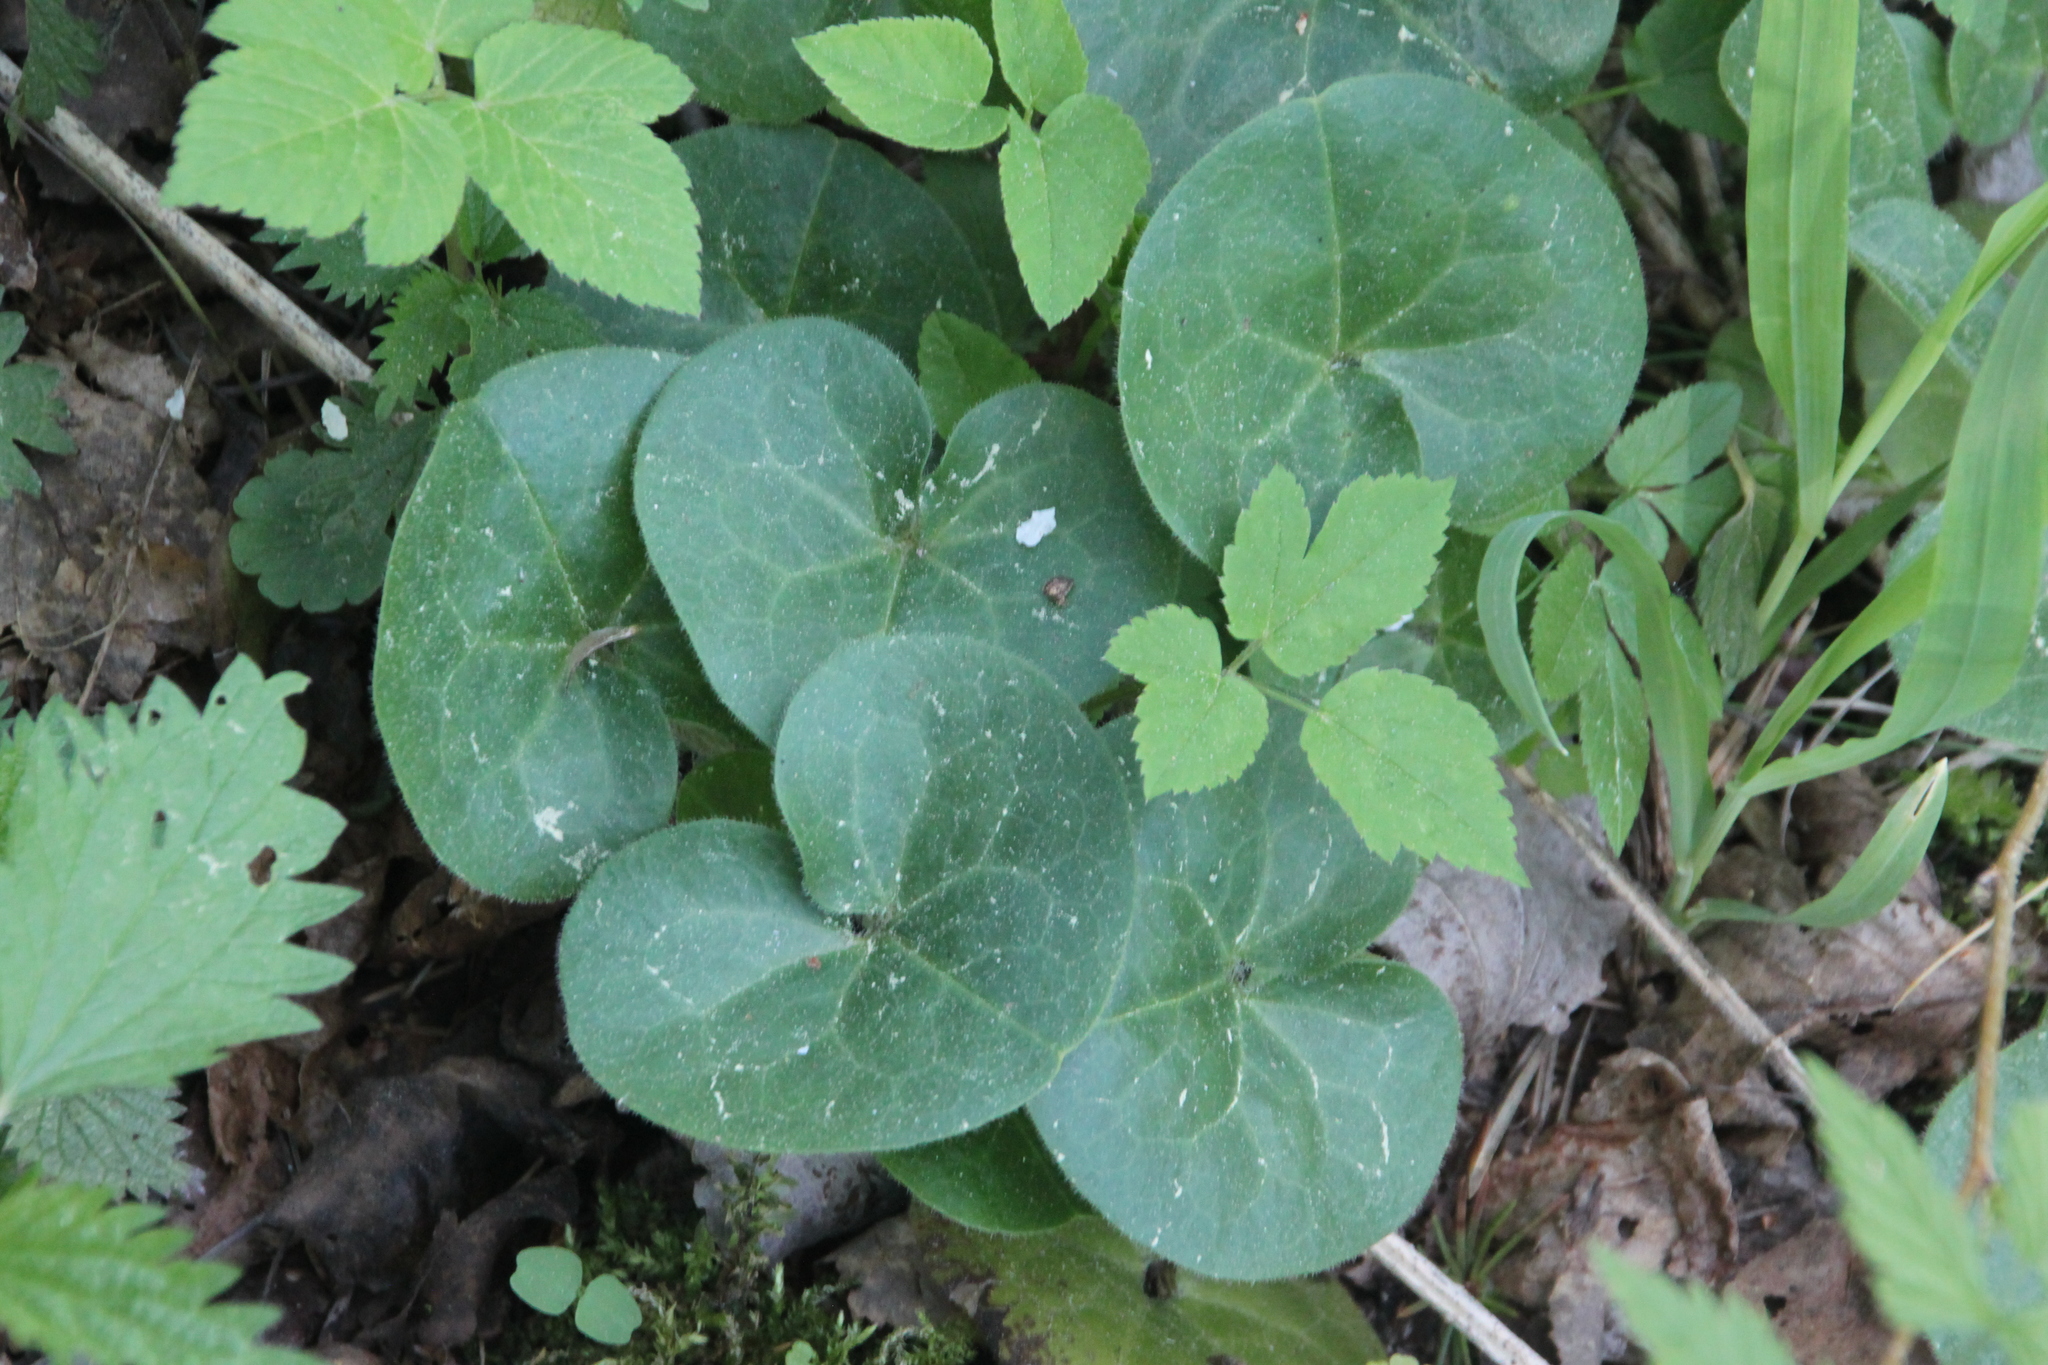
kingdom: Plantae
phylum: Tracheophyta
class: Magnoliopsida
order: Piperales
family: Aristolochiaceae
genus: Asarum
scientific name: Asarum europaeum
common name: Asarabacca
